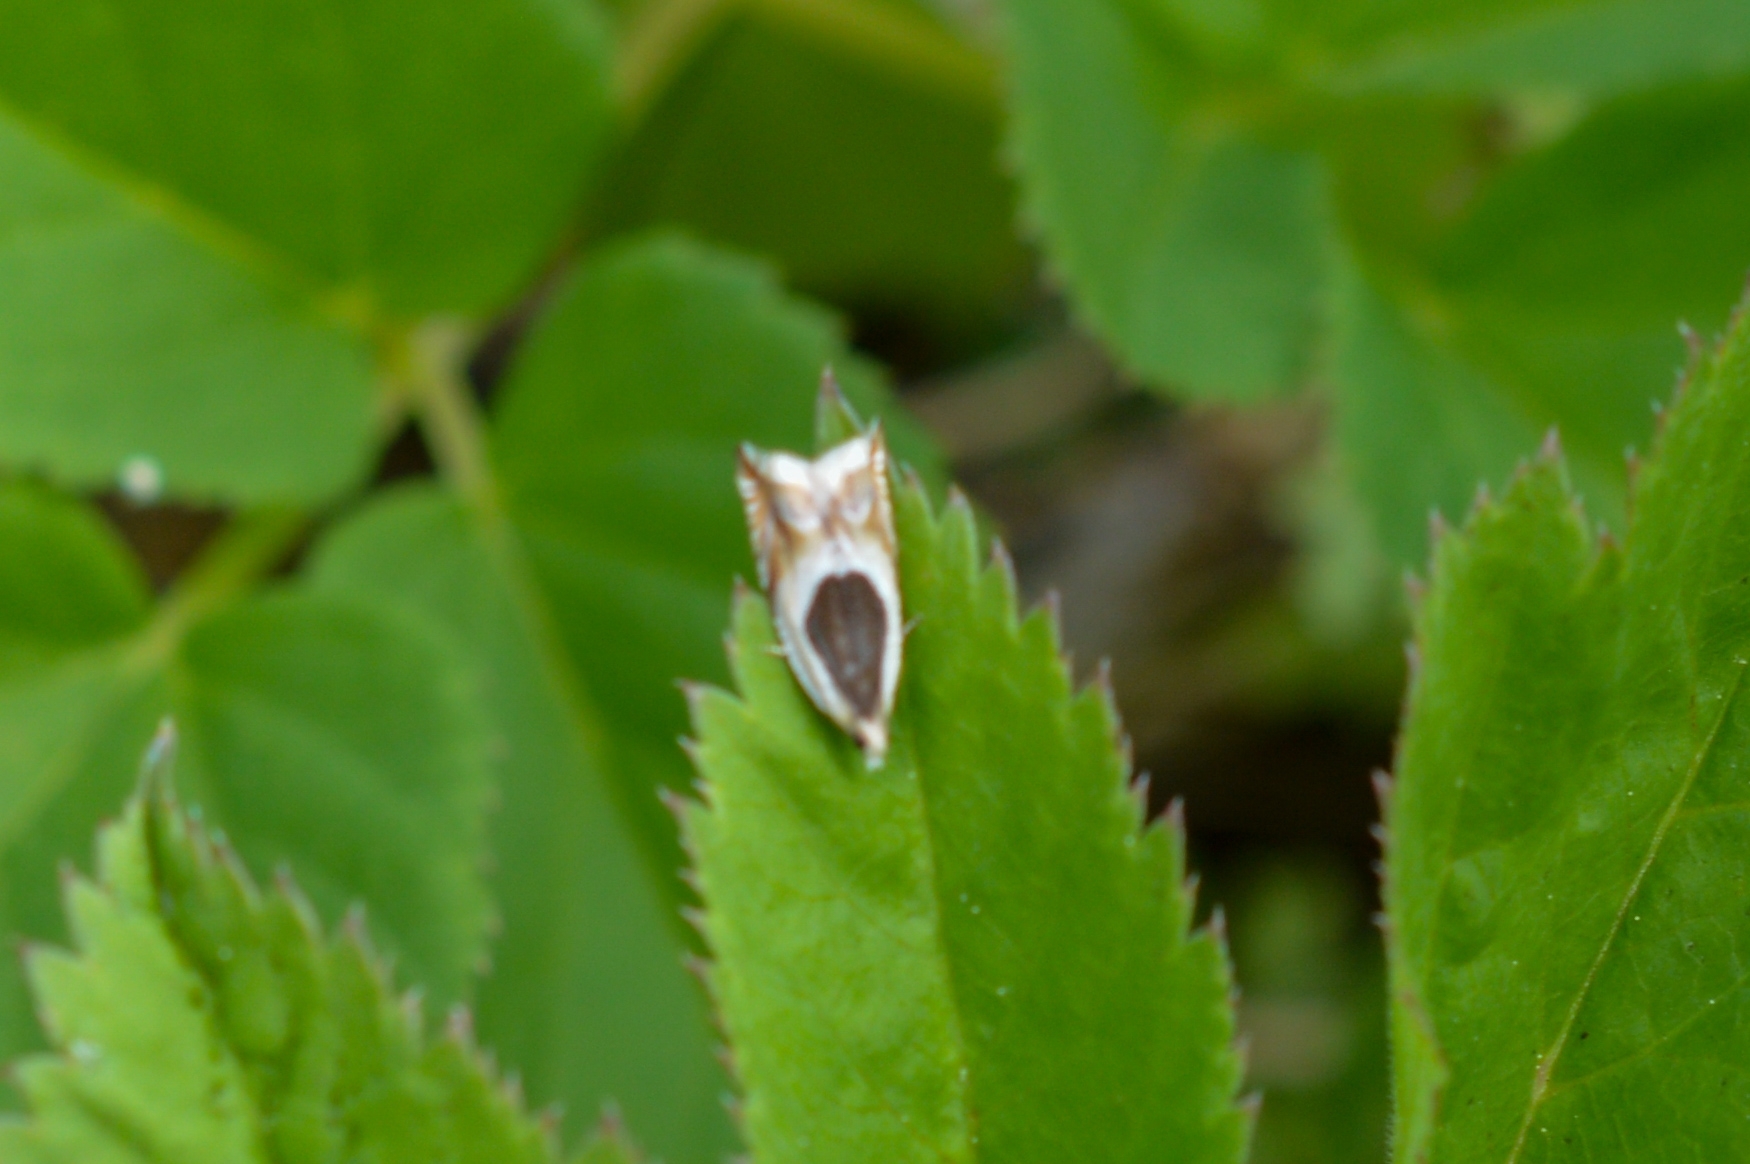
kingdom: Animalia
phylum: Arthropoda
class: Insecta
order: Lepidoptera
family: Tortricidae
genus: Ancylis
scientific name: Ancylis badiana
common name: Common roller
